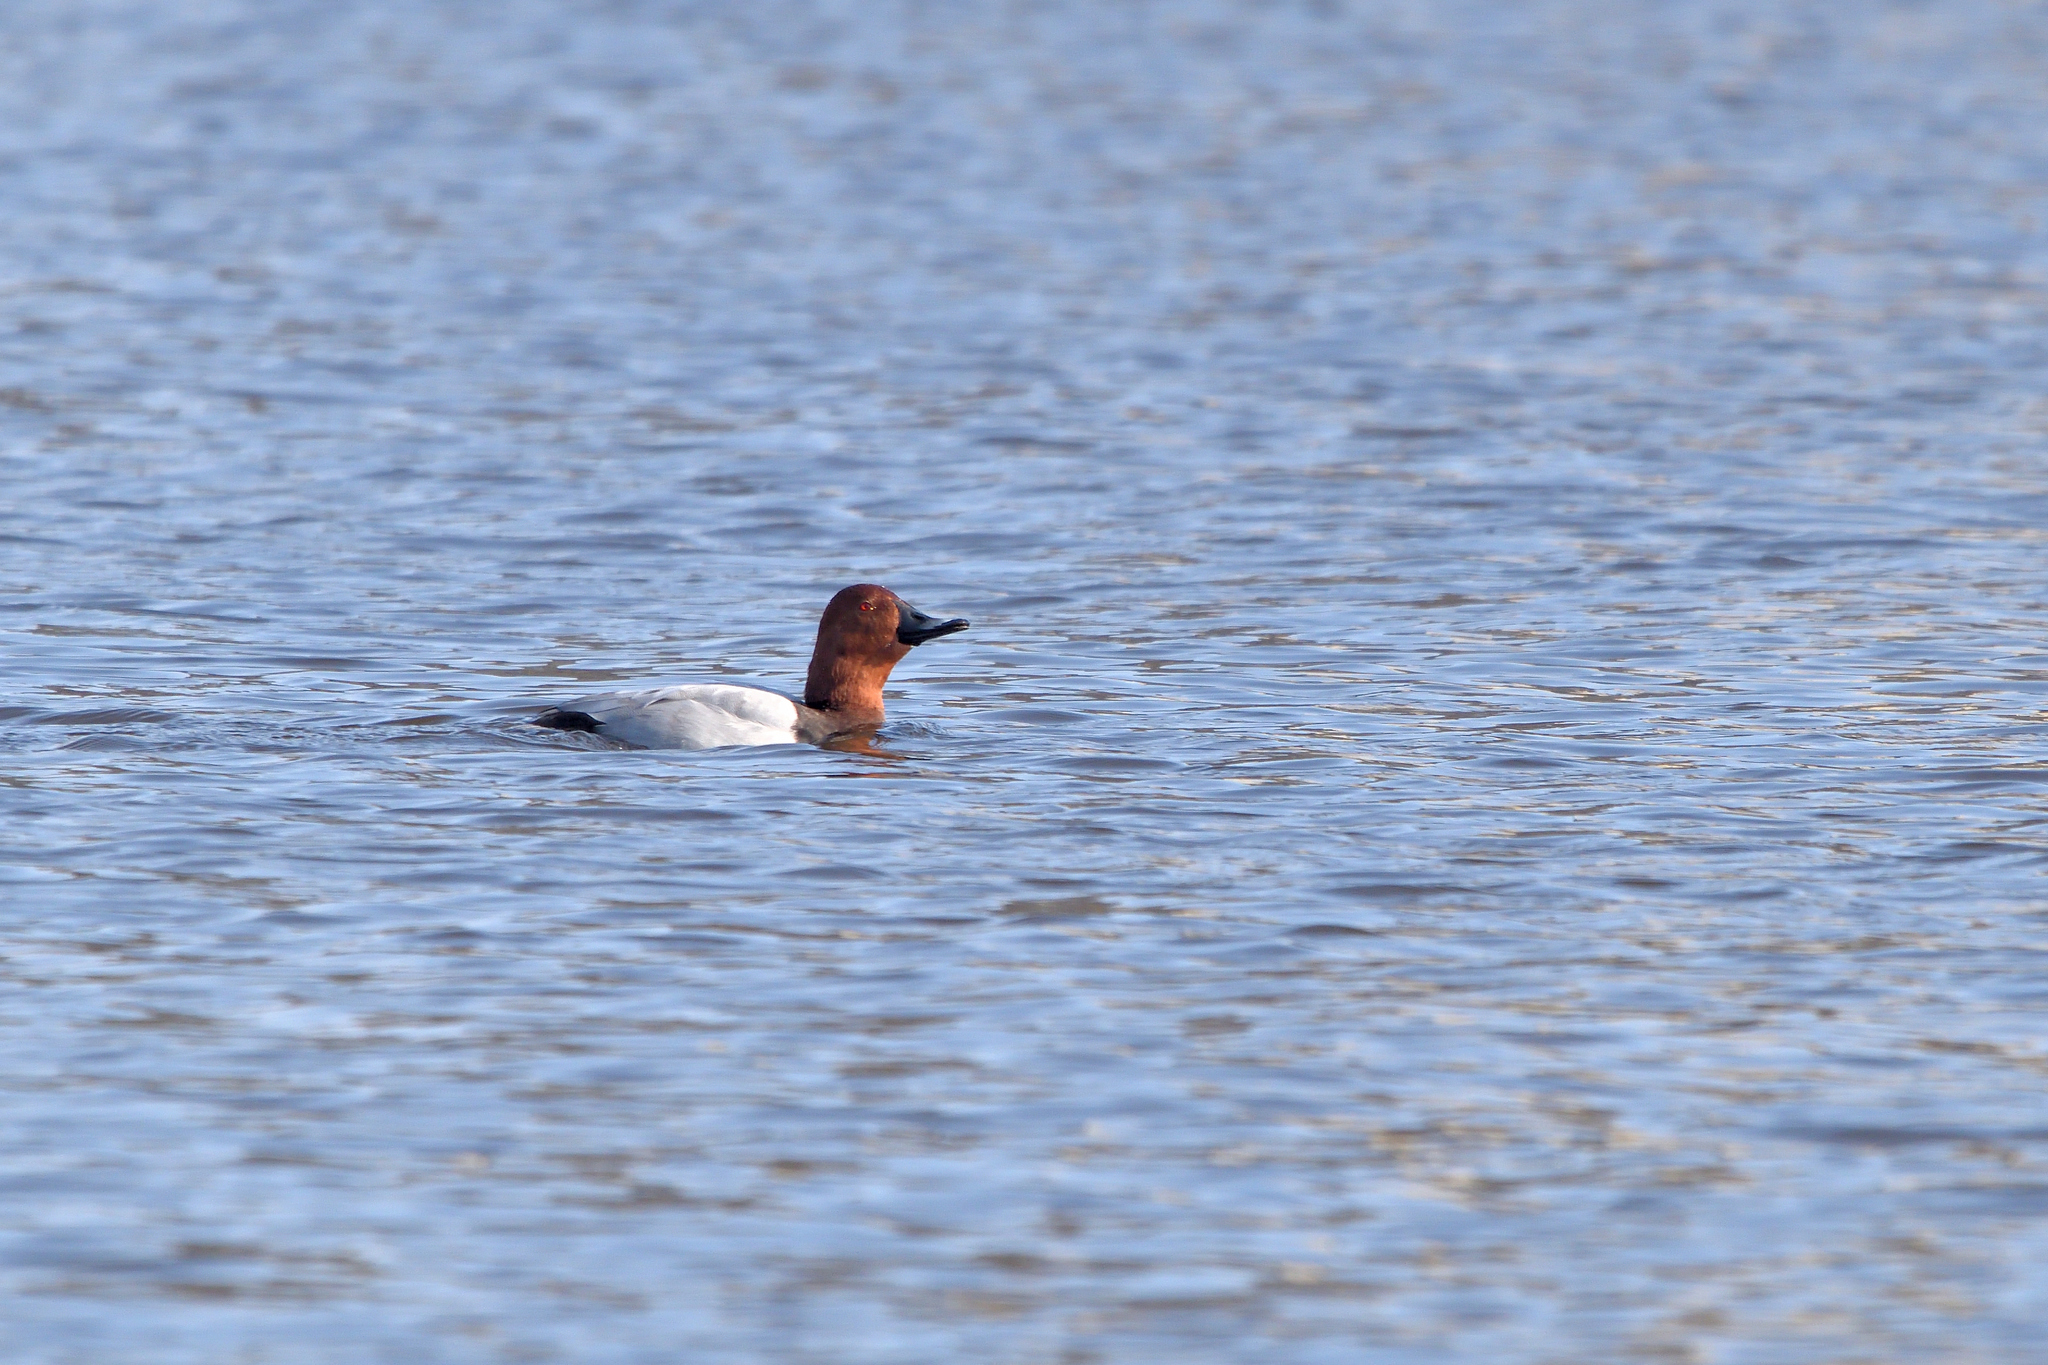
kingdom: Animalia
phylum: Chordata
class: Aves
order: Anseriformes
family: Anatidae
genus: Aythya
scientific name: Aythya ferina
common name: Common pochard
